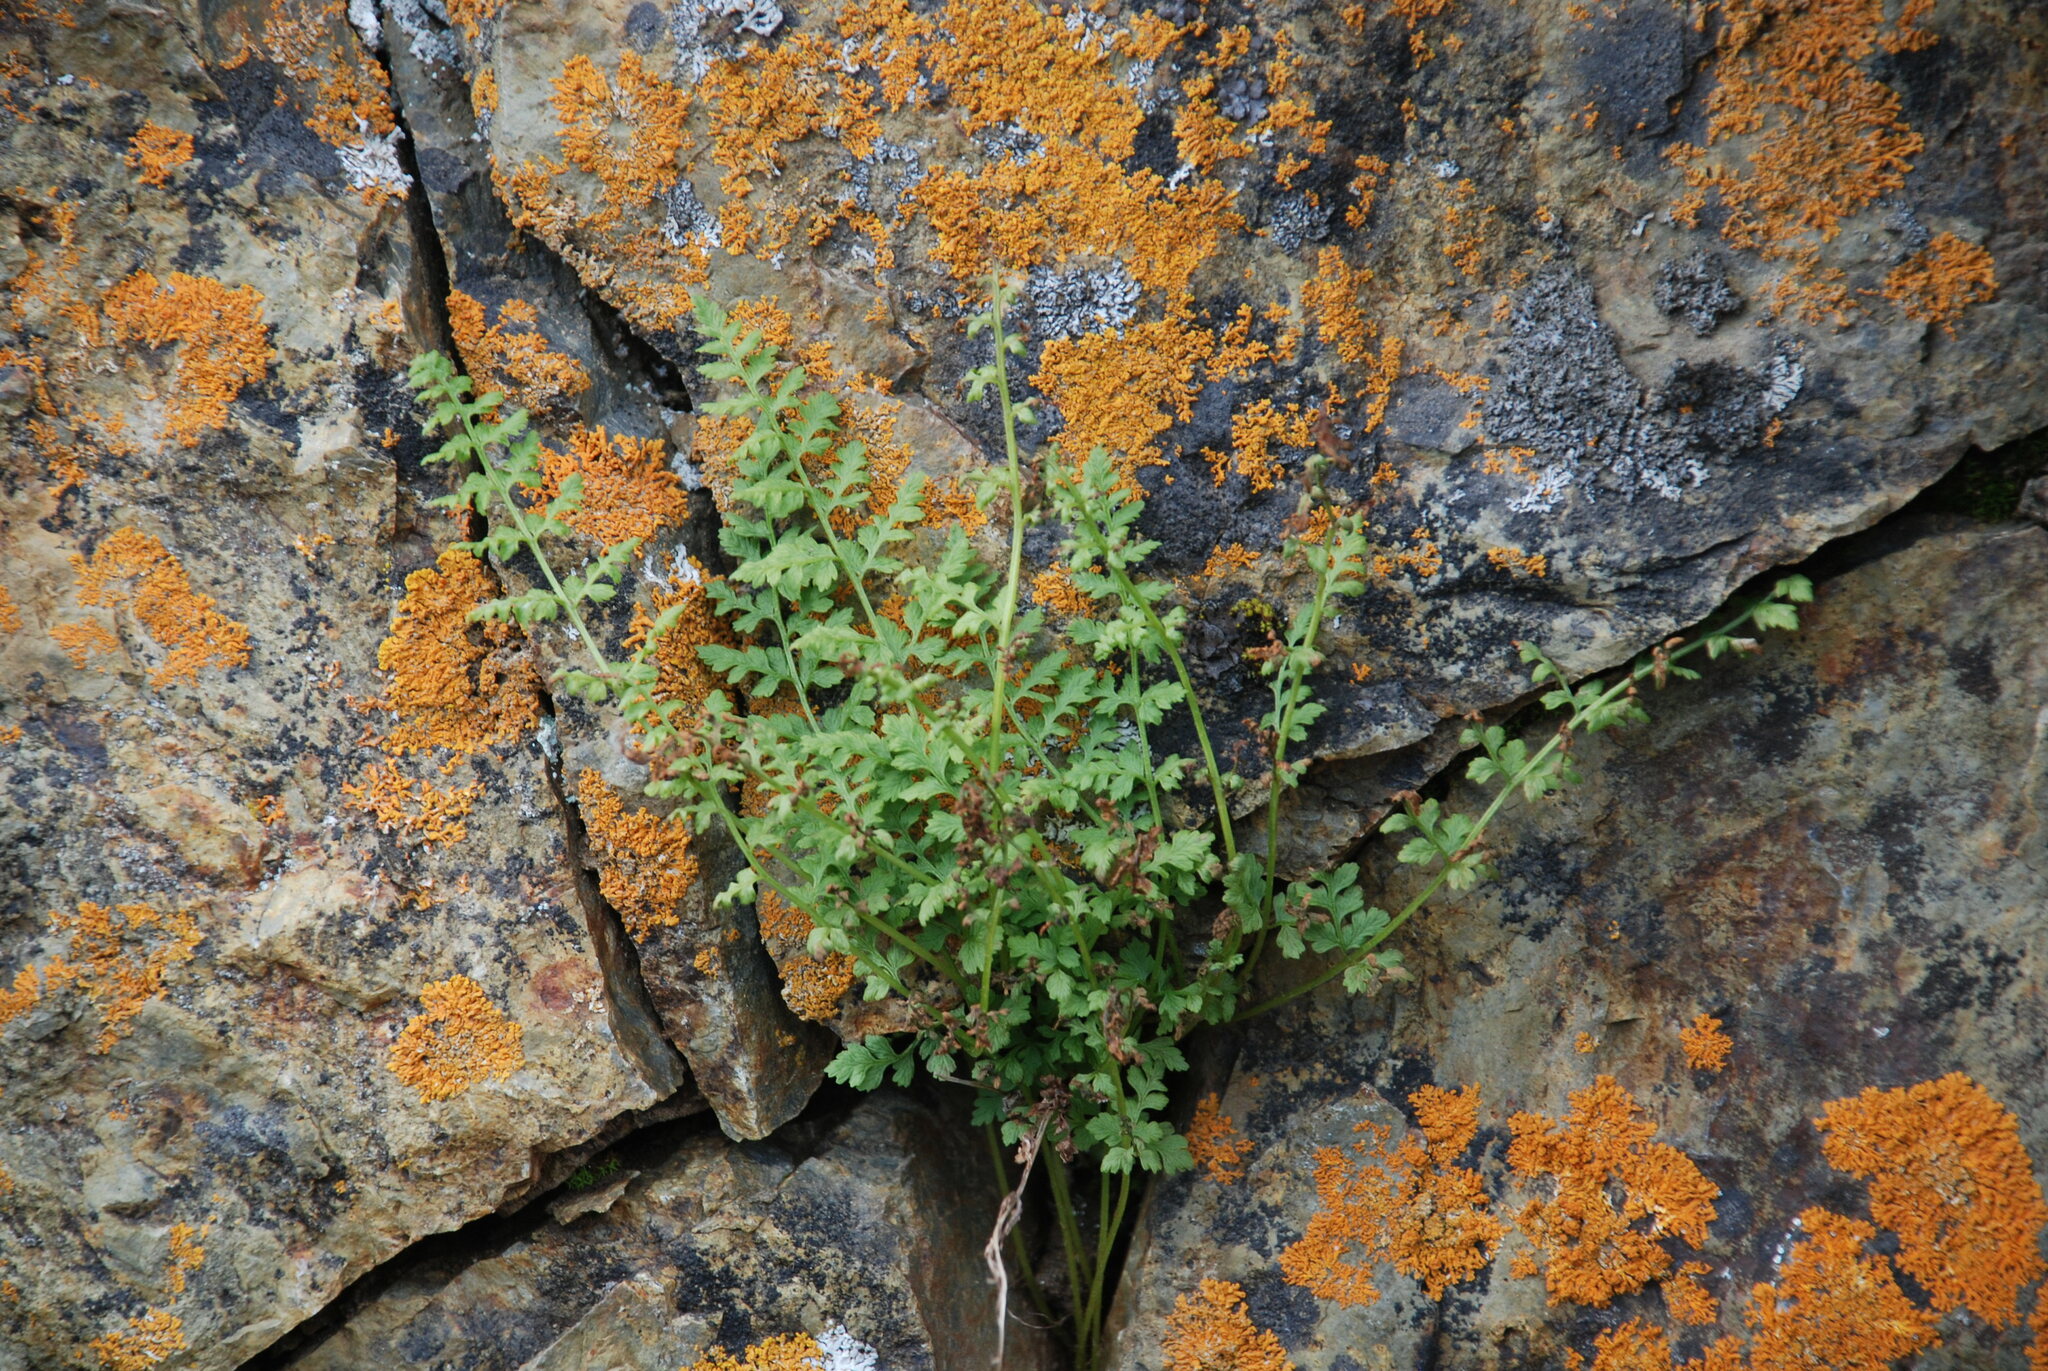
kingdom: Plantae
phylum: Tracheophyta
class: Polypodiopsida
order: Polypodiales
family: Cystopteridaceae
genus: Cystopteris
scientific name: Cystopteris fragilis
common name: Brittle bladder fern
